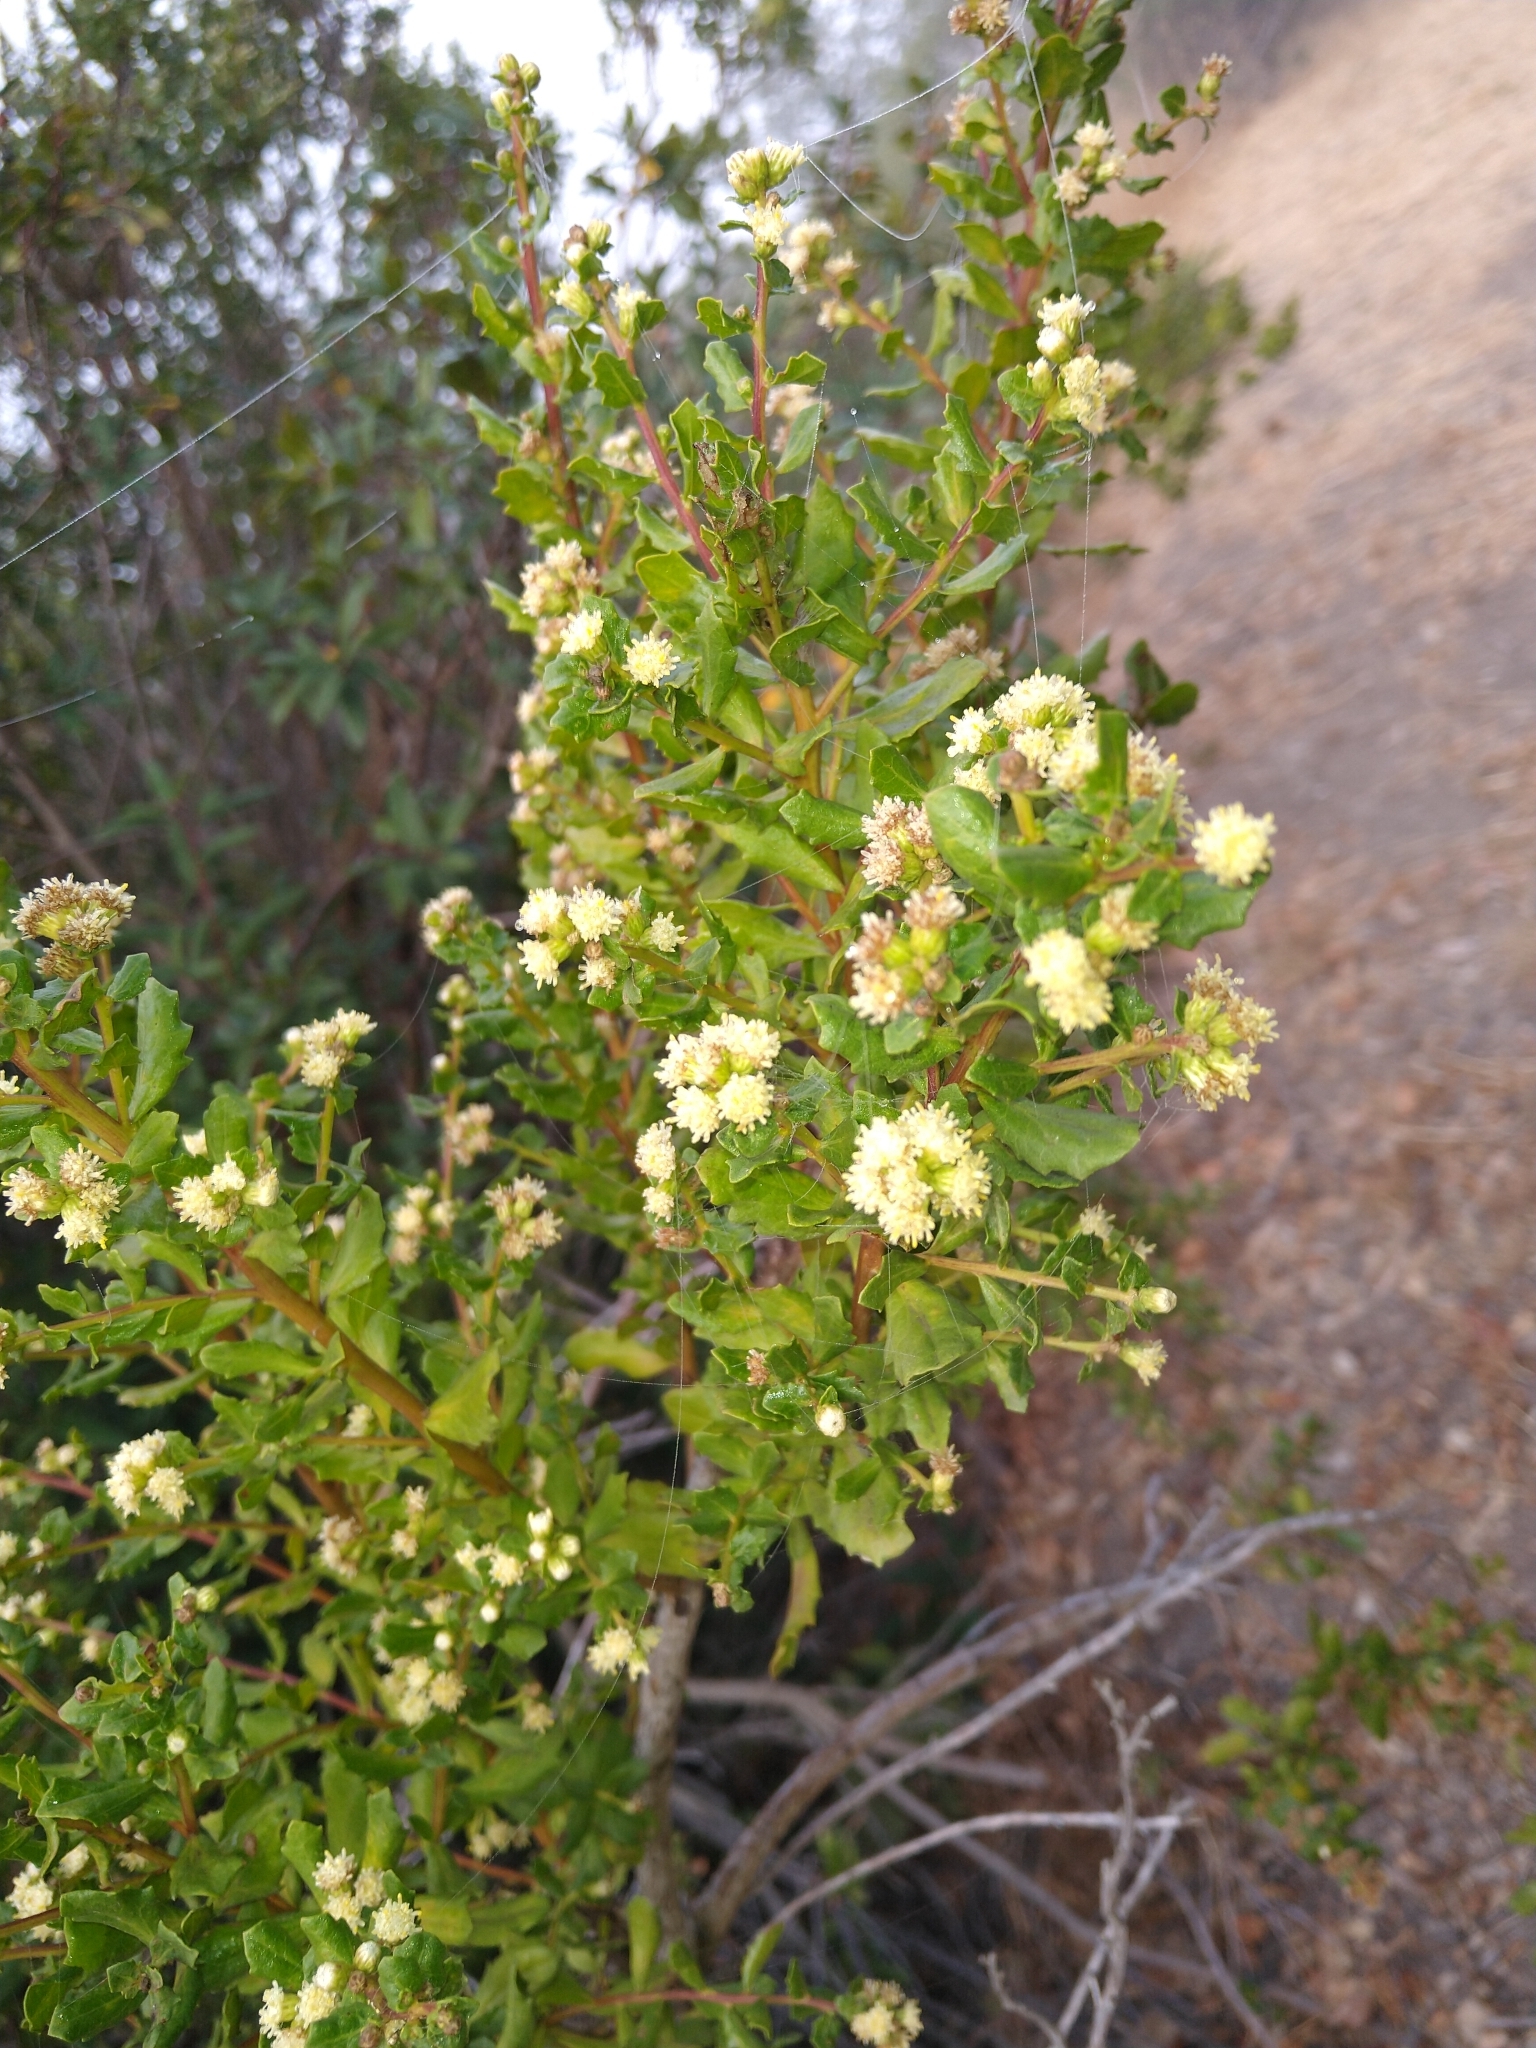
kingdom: Plantae
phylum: Tracheophyta
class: Magnoliopsida
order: Asterales
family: Asteraceae
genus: Baccharis
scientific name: Baccharis pilularis
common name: Coyotebrush
